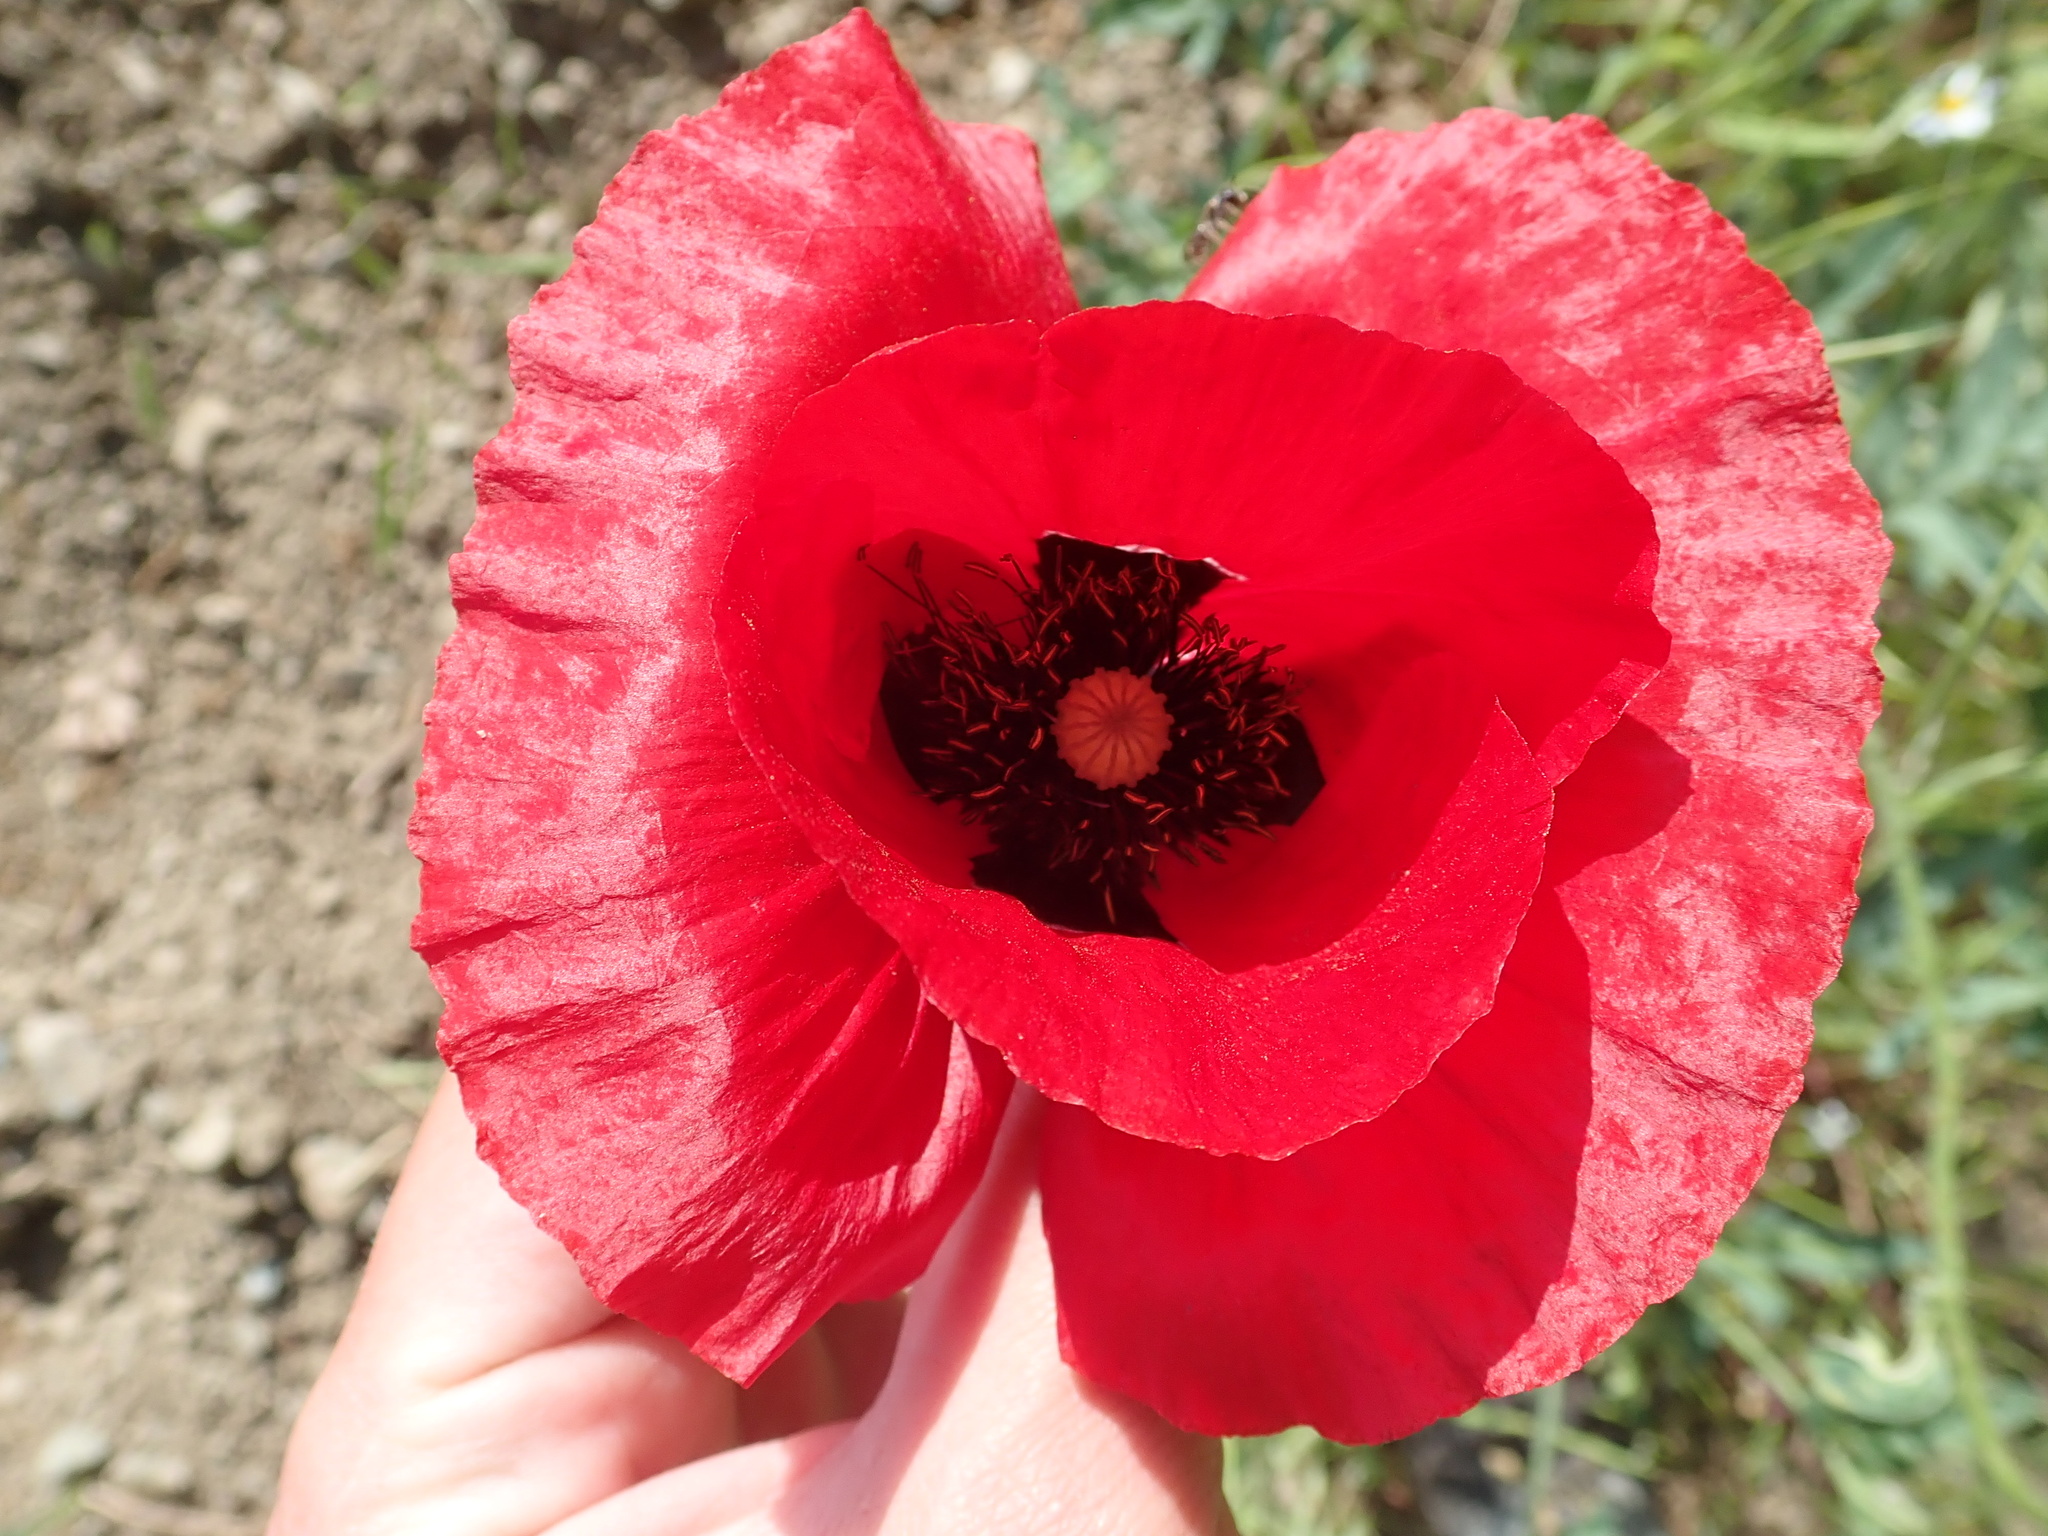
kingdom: Plantae
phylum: Tracheophyta
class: Magnoliopsida
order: Ranunculales
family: Papaveraceae
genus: Papaver
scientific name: Papaver rhoeas
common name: Corn poppy
